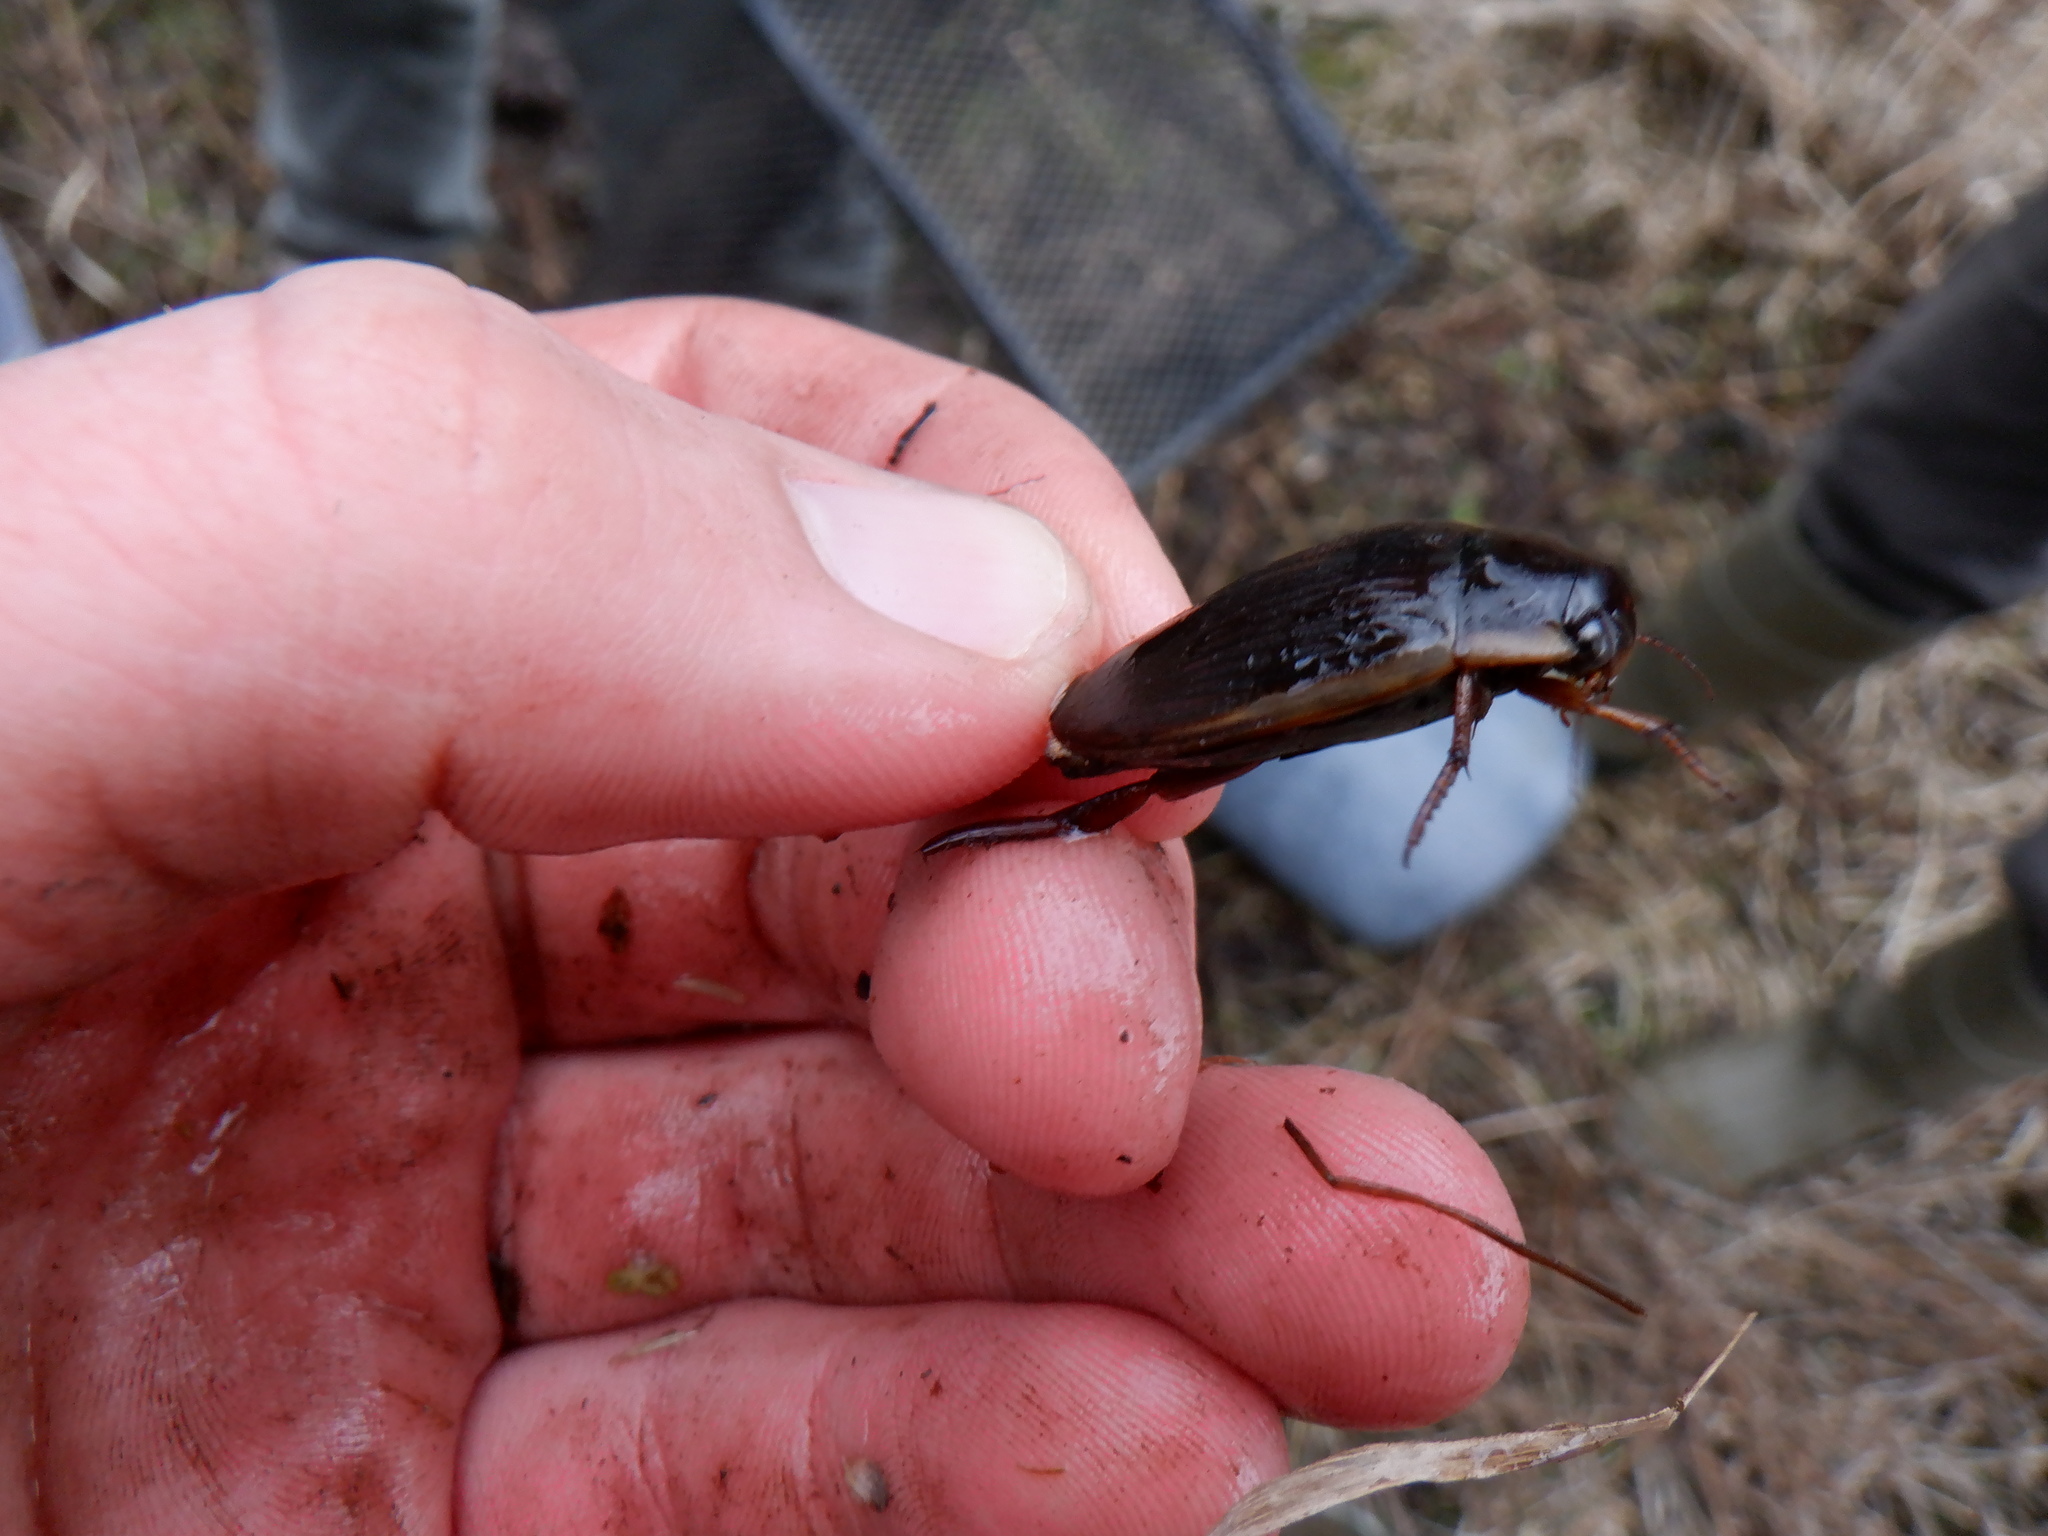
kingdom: Animalia
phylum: Arthropoda
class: Insecta
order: Coleoptera
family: Dytiscidae
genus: Dytiscus
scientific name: Dytiscus
